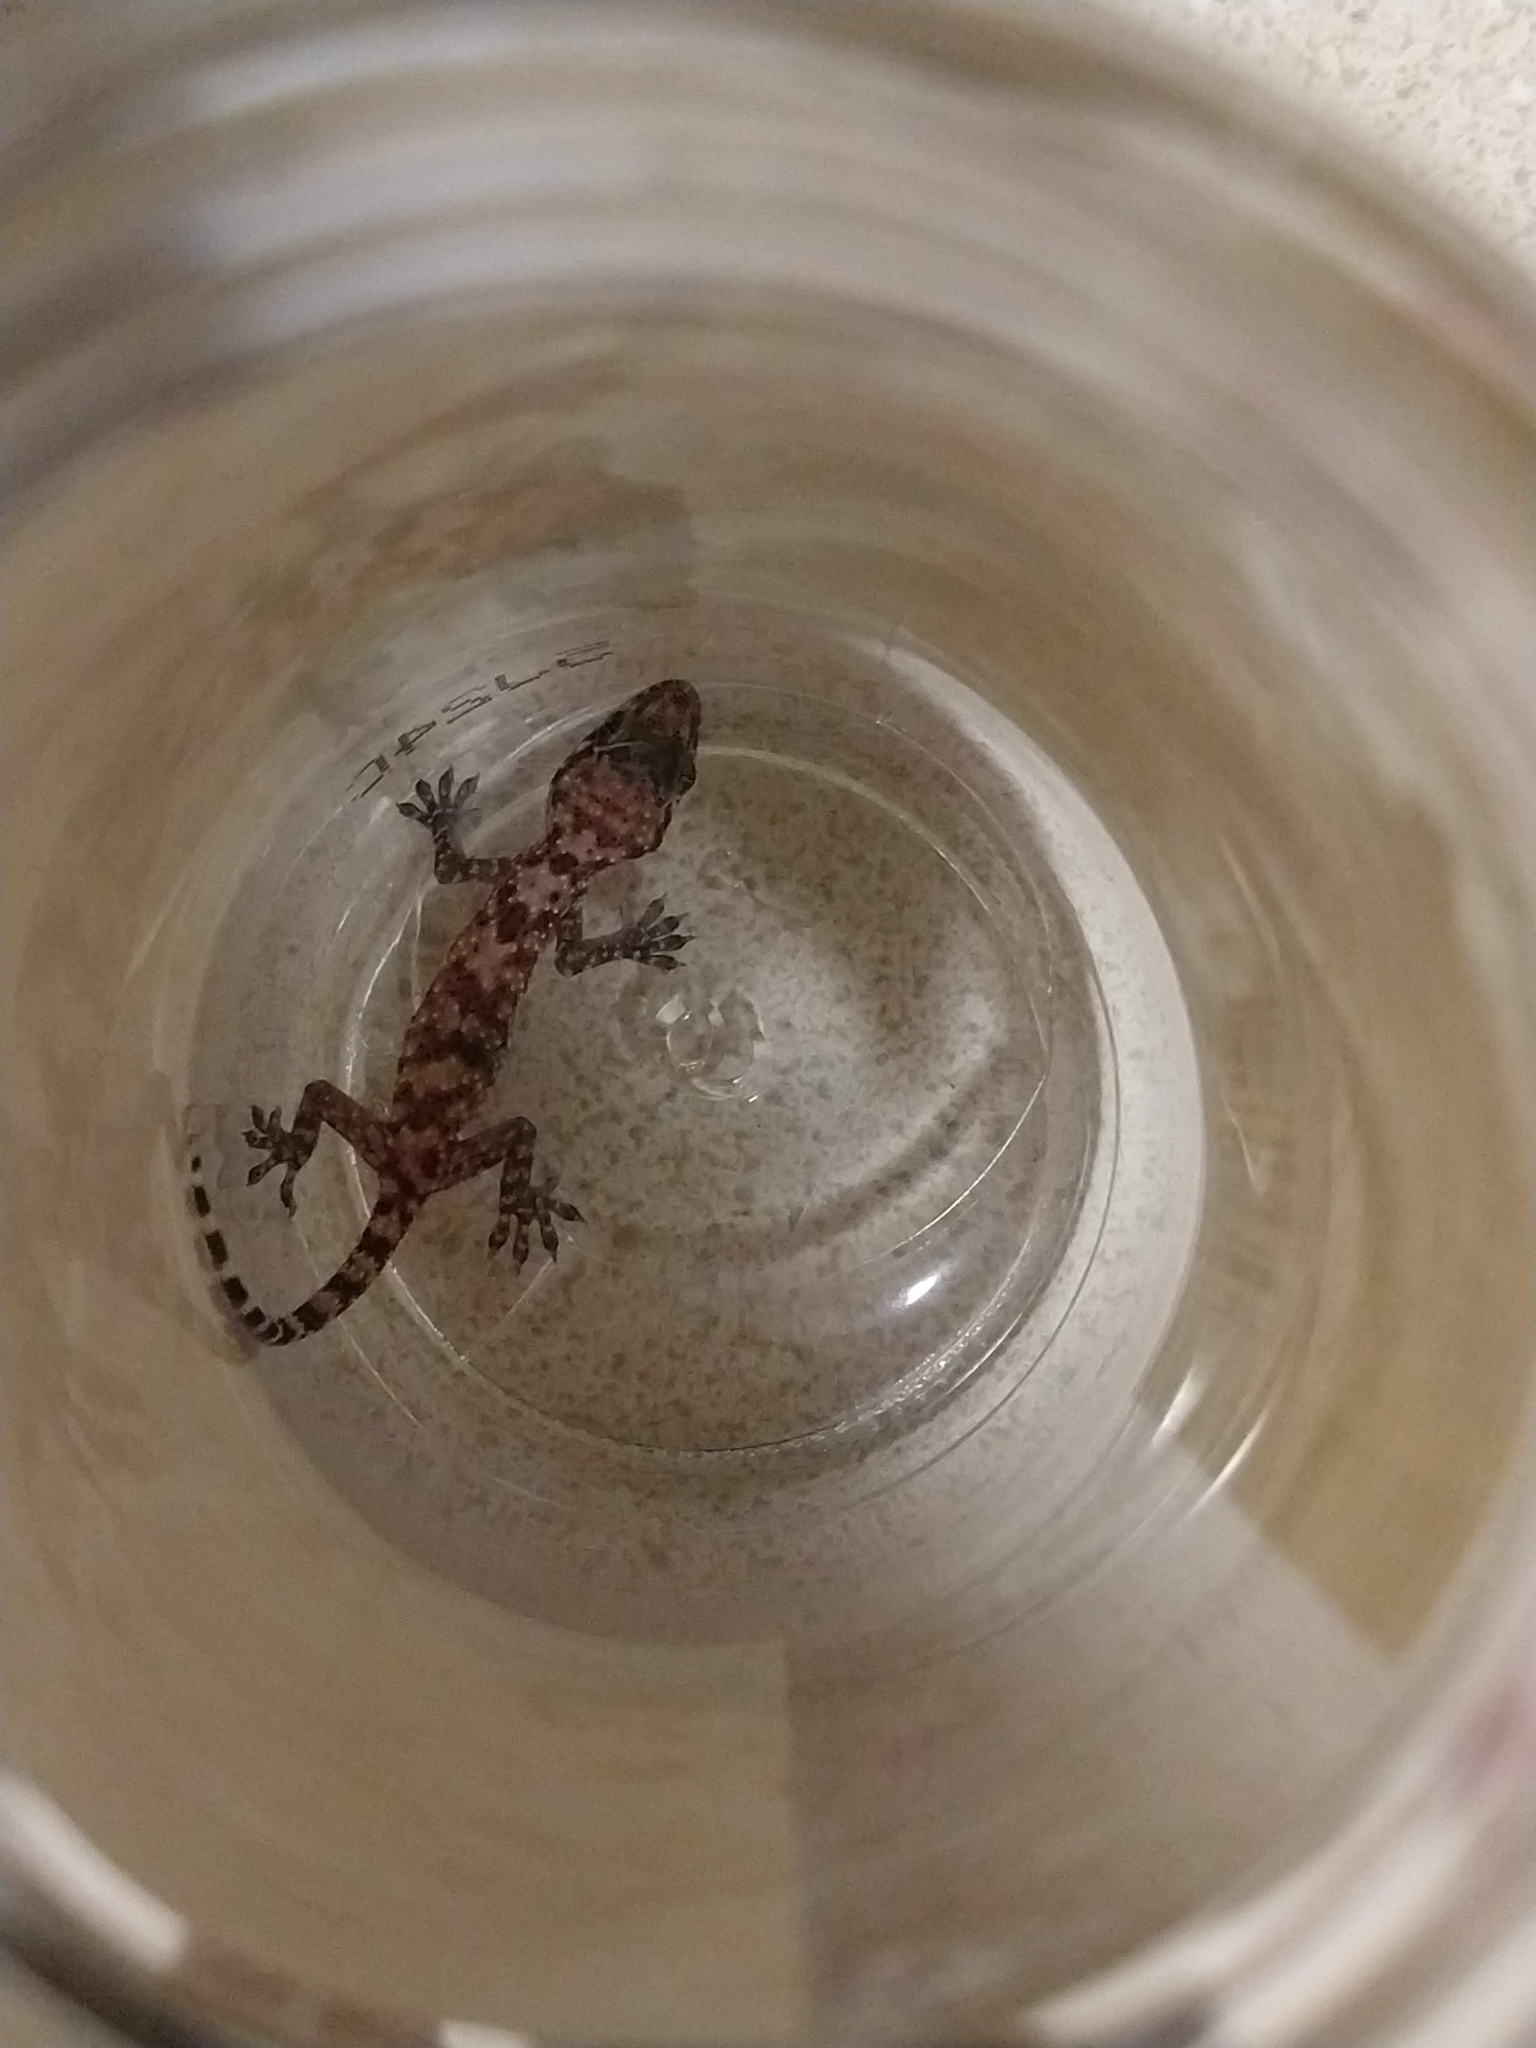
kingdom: Animalia
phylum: Chordata
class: Squamata
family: Gekkonidae
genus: Hemidactylus
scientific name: Hemidactylus turcicus
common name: Turkish gecko
